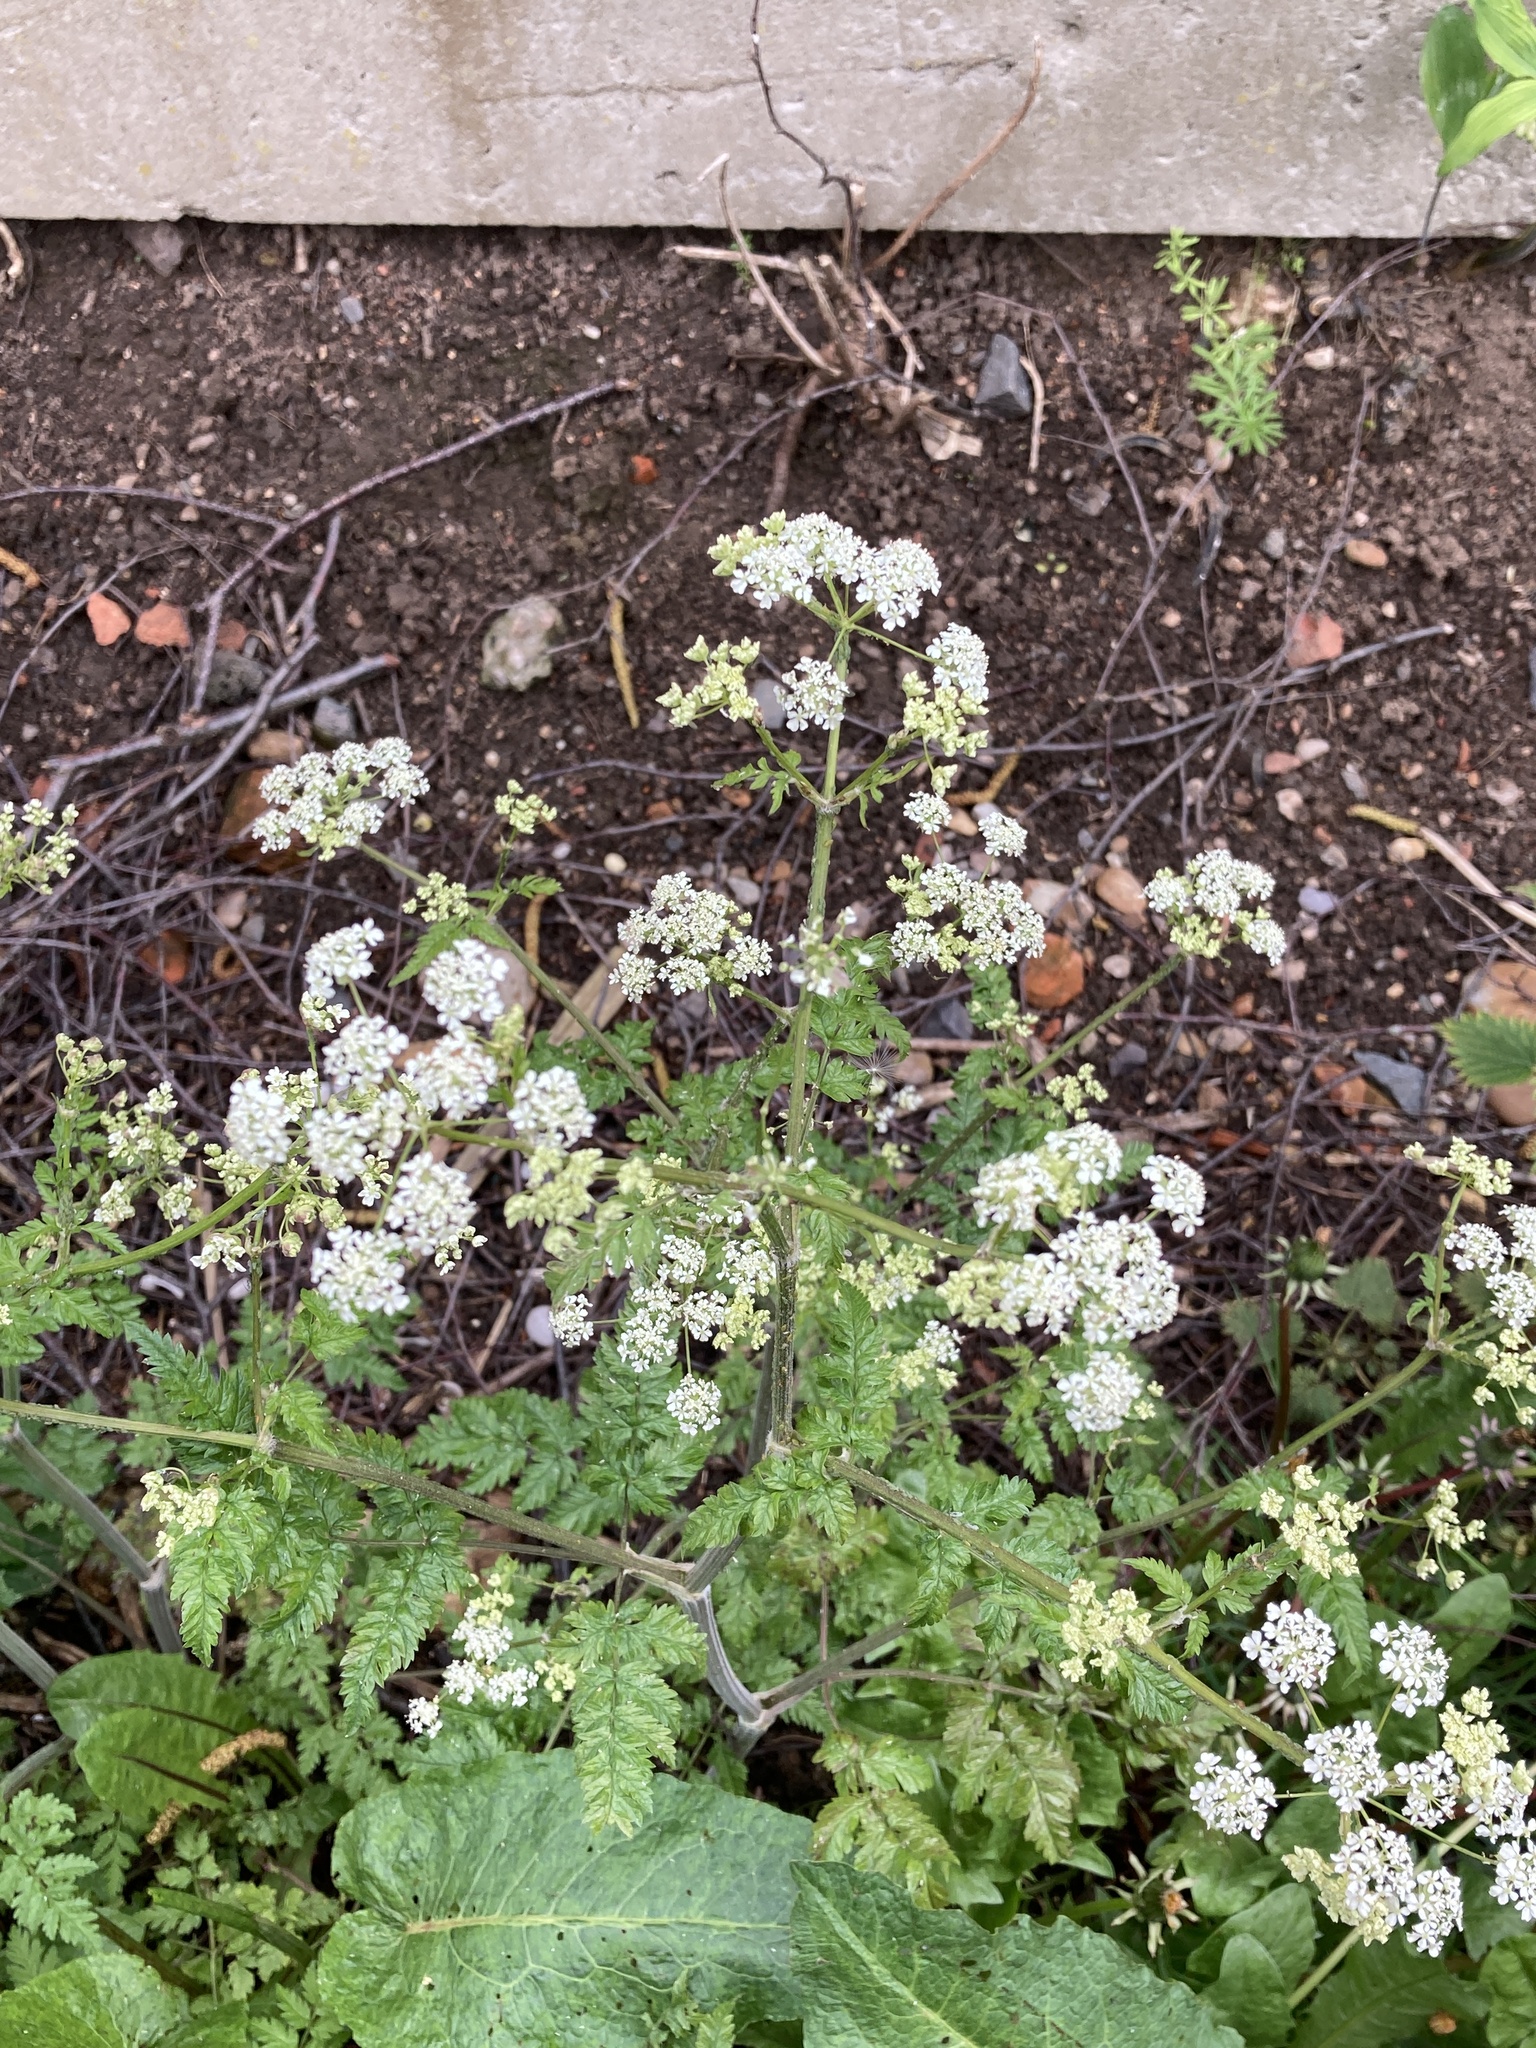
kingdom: Plantae
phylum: Tracheophyta
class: Magnoliopsida
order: Apiales
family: Apiaceae
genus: Anthriscus
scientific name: Anthriscus sylvestris
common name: Cow parsley
